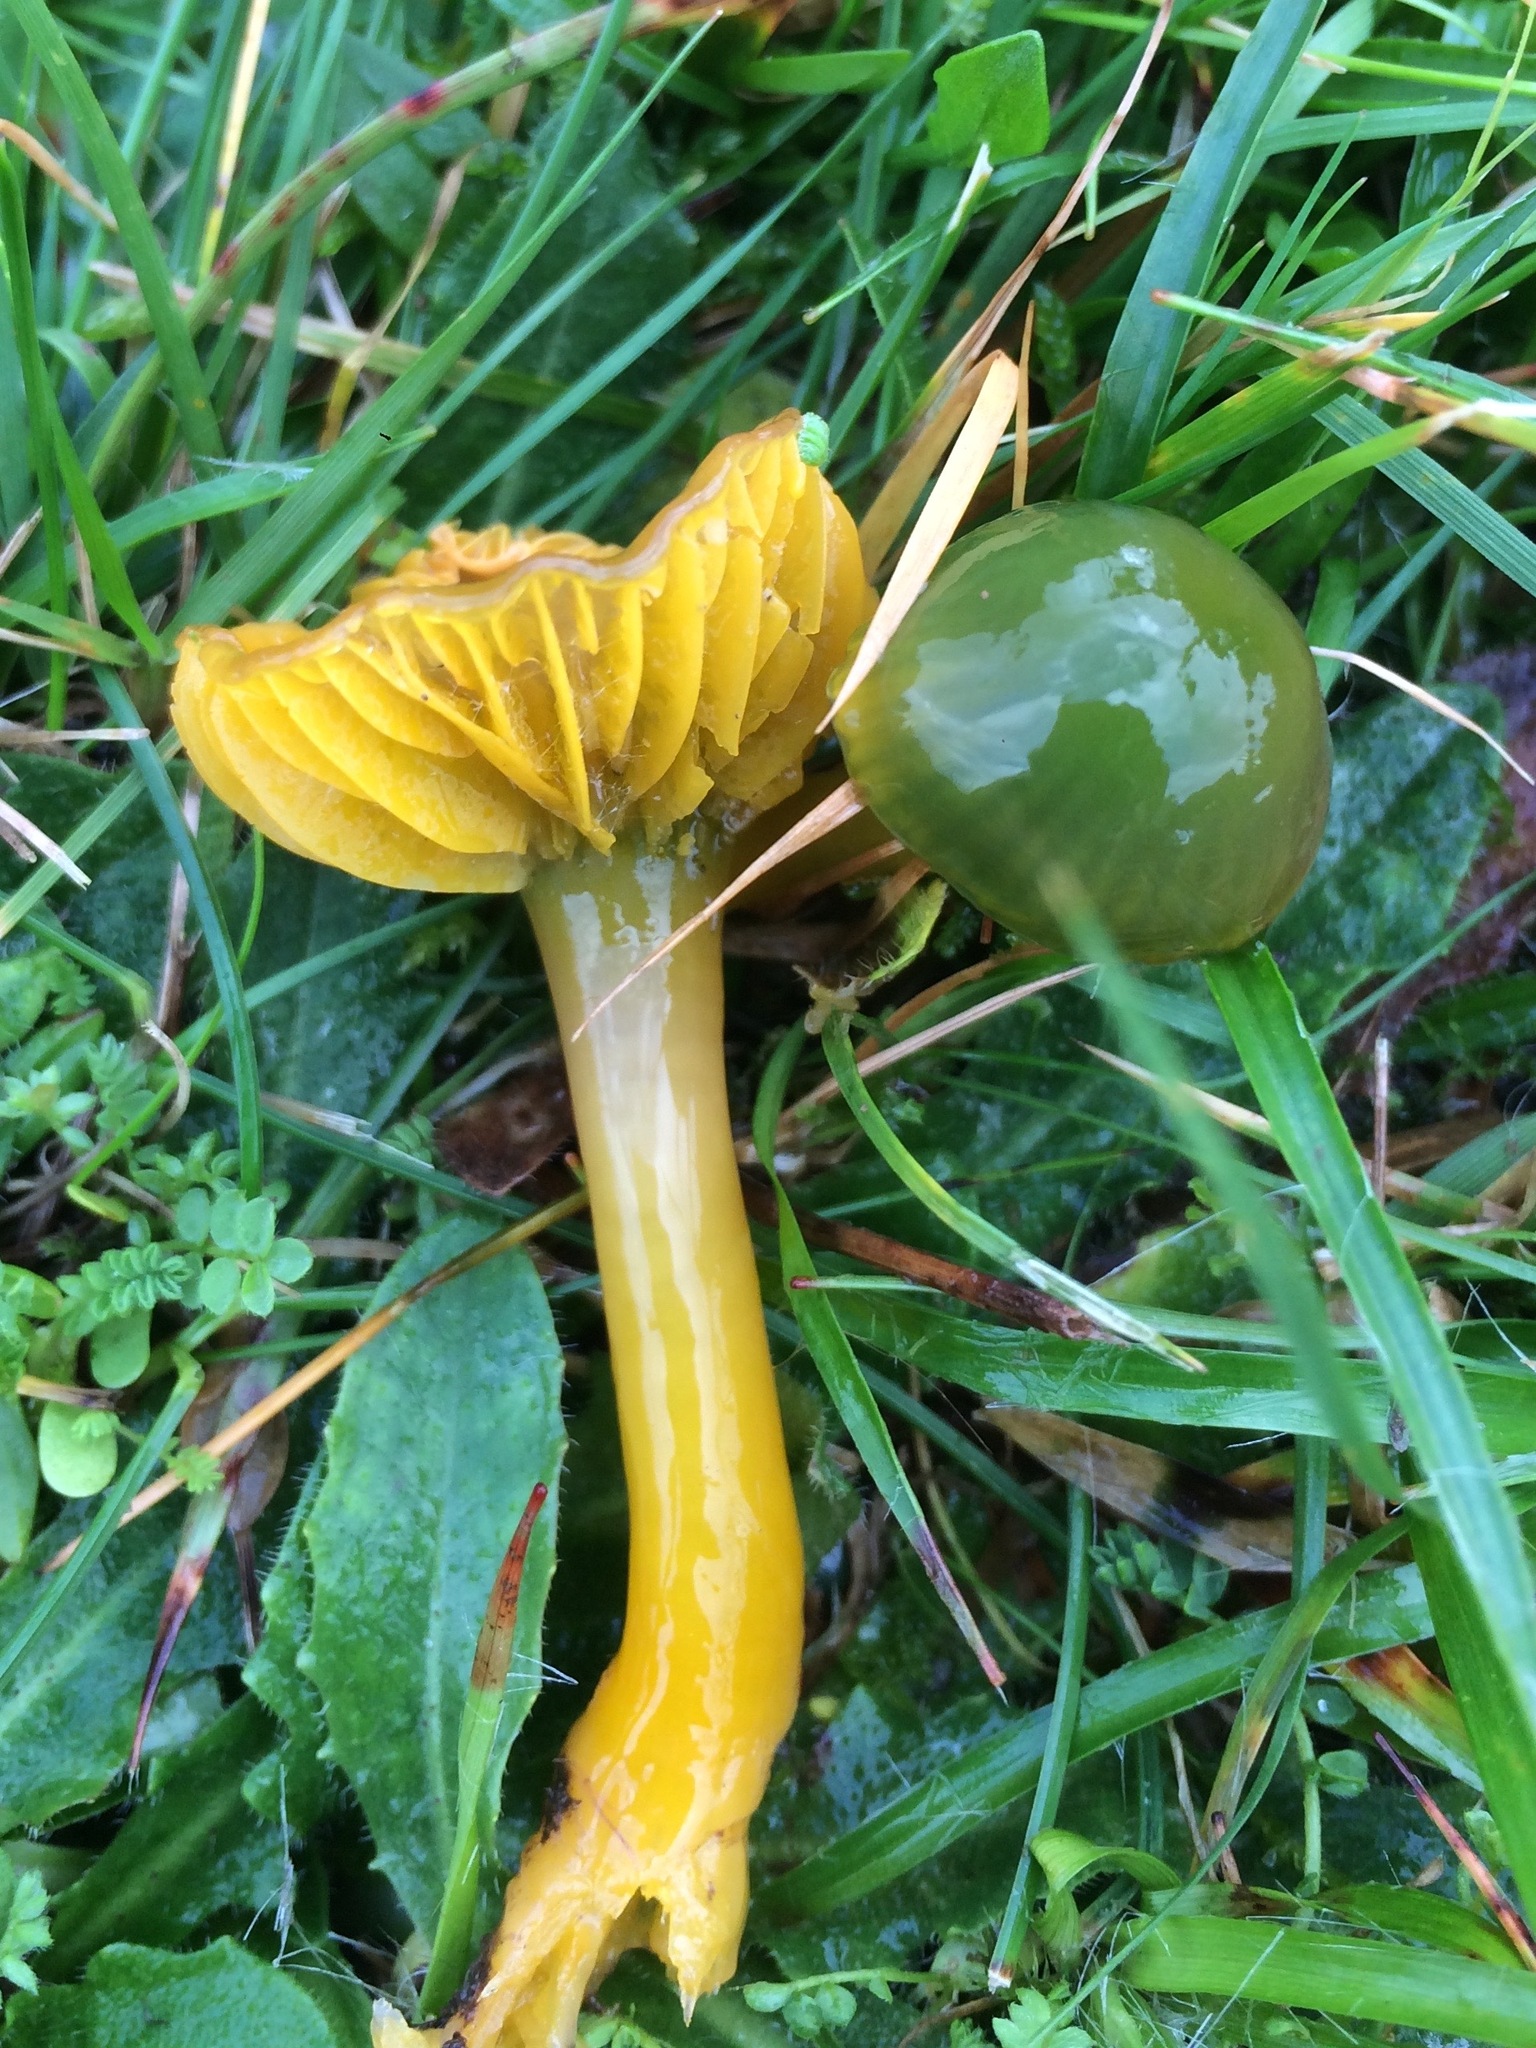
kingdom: Fungi
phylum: Basidiomycota
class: Agaricomycetes
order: Agaricales
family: Hygrophoraceae
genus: Gliophorus
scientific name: Gliophorus psittacinus
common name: Parrot wax-cap
